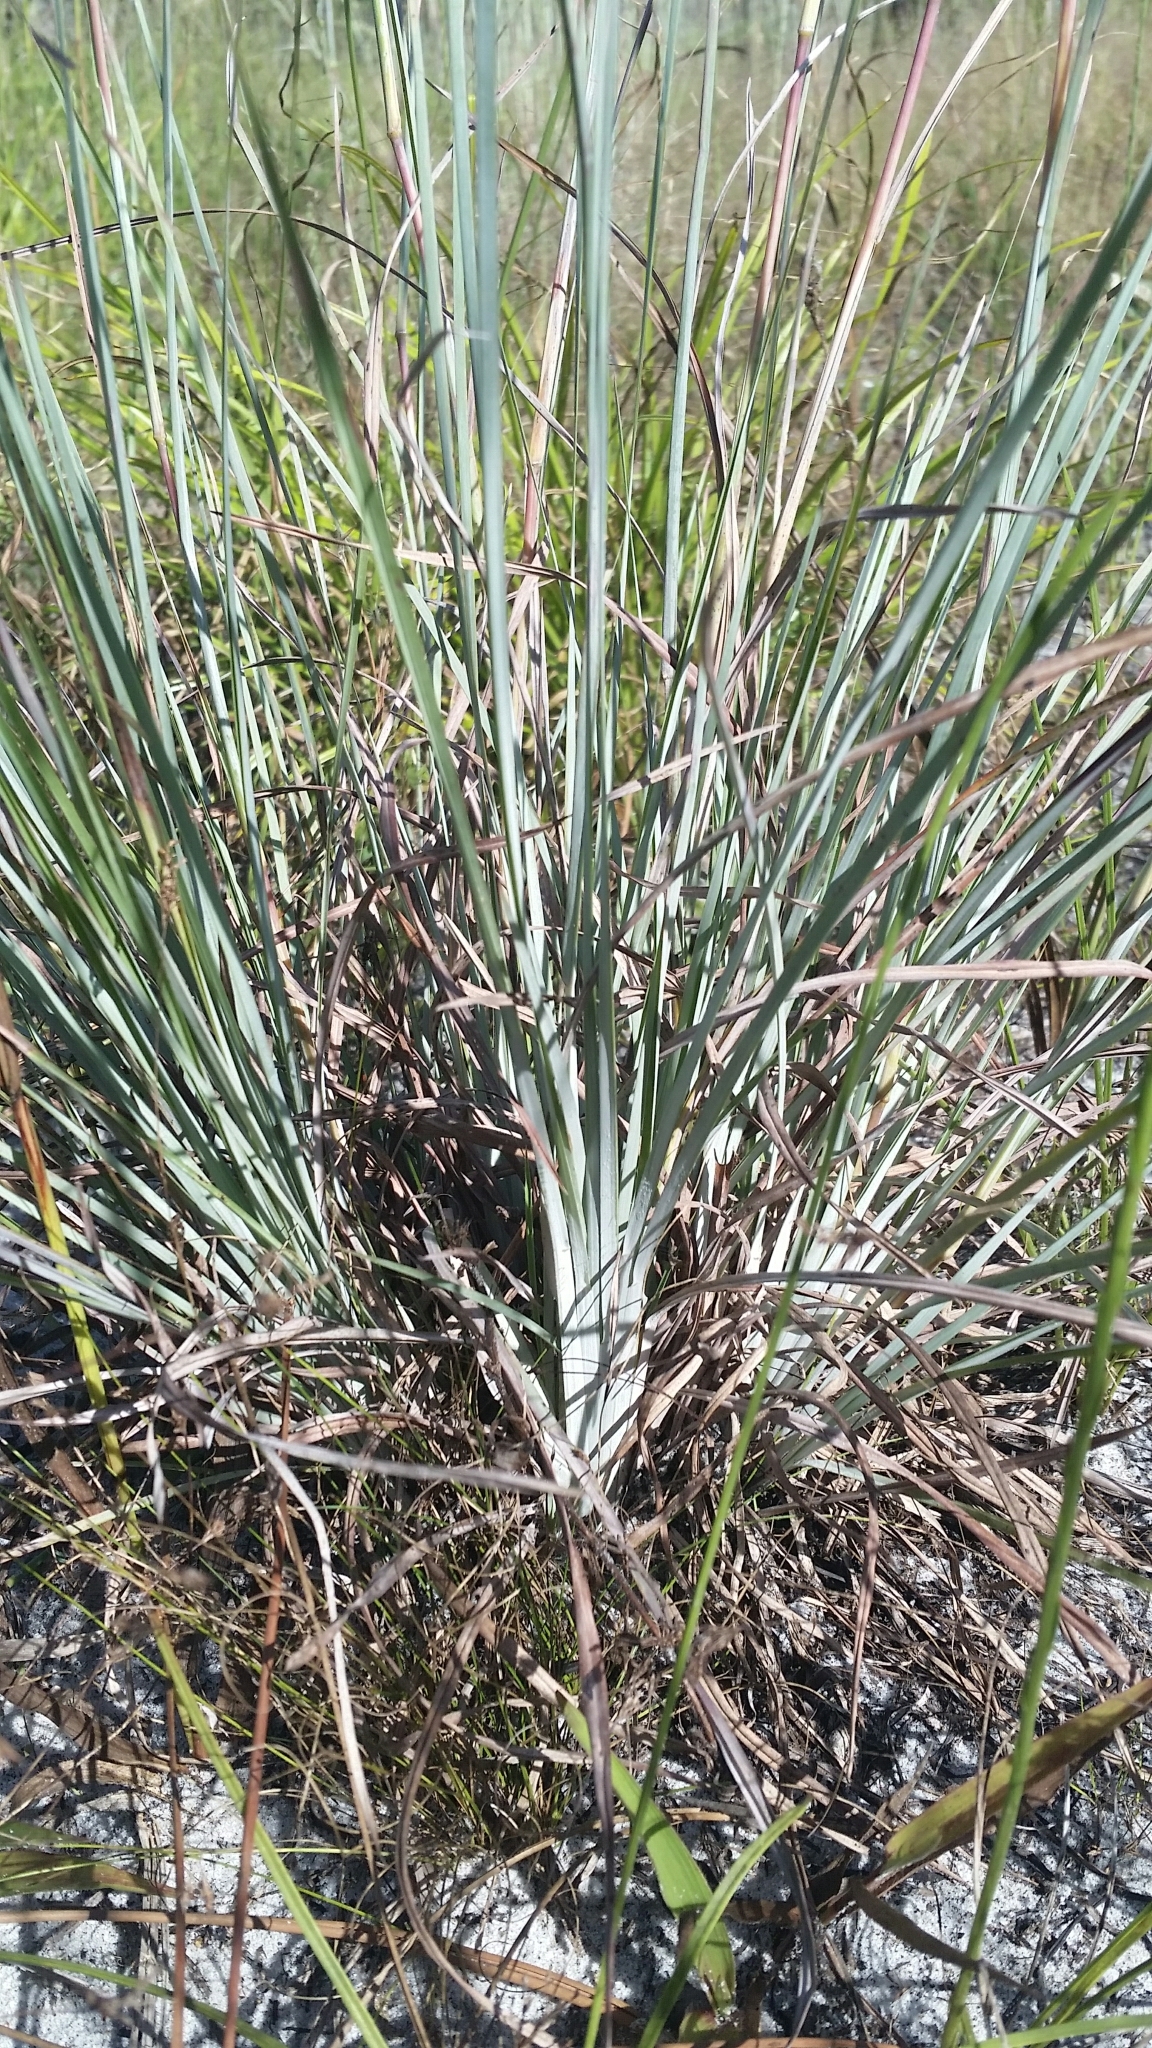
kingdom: Plantae
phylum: Tracheophyta
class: Liliopsida
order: Poales
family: Poaceae
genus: Andropogon
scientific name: Andropogon capillipes
